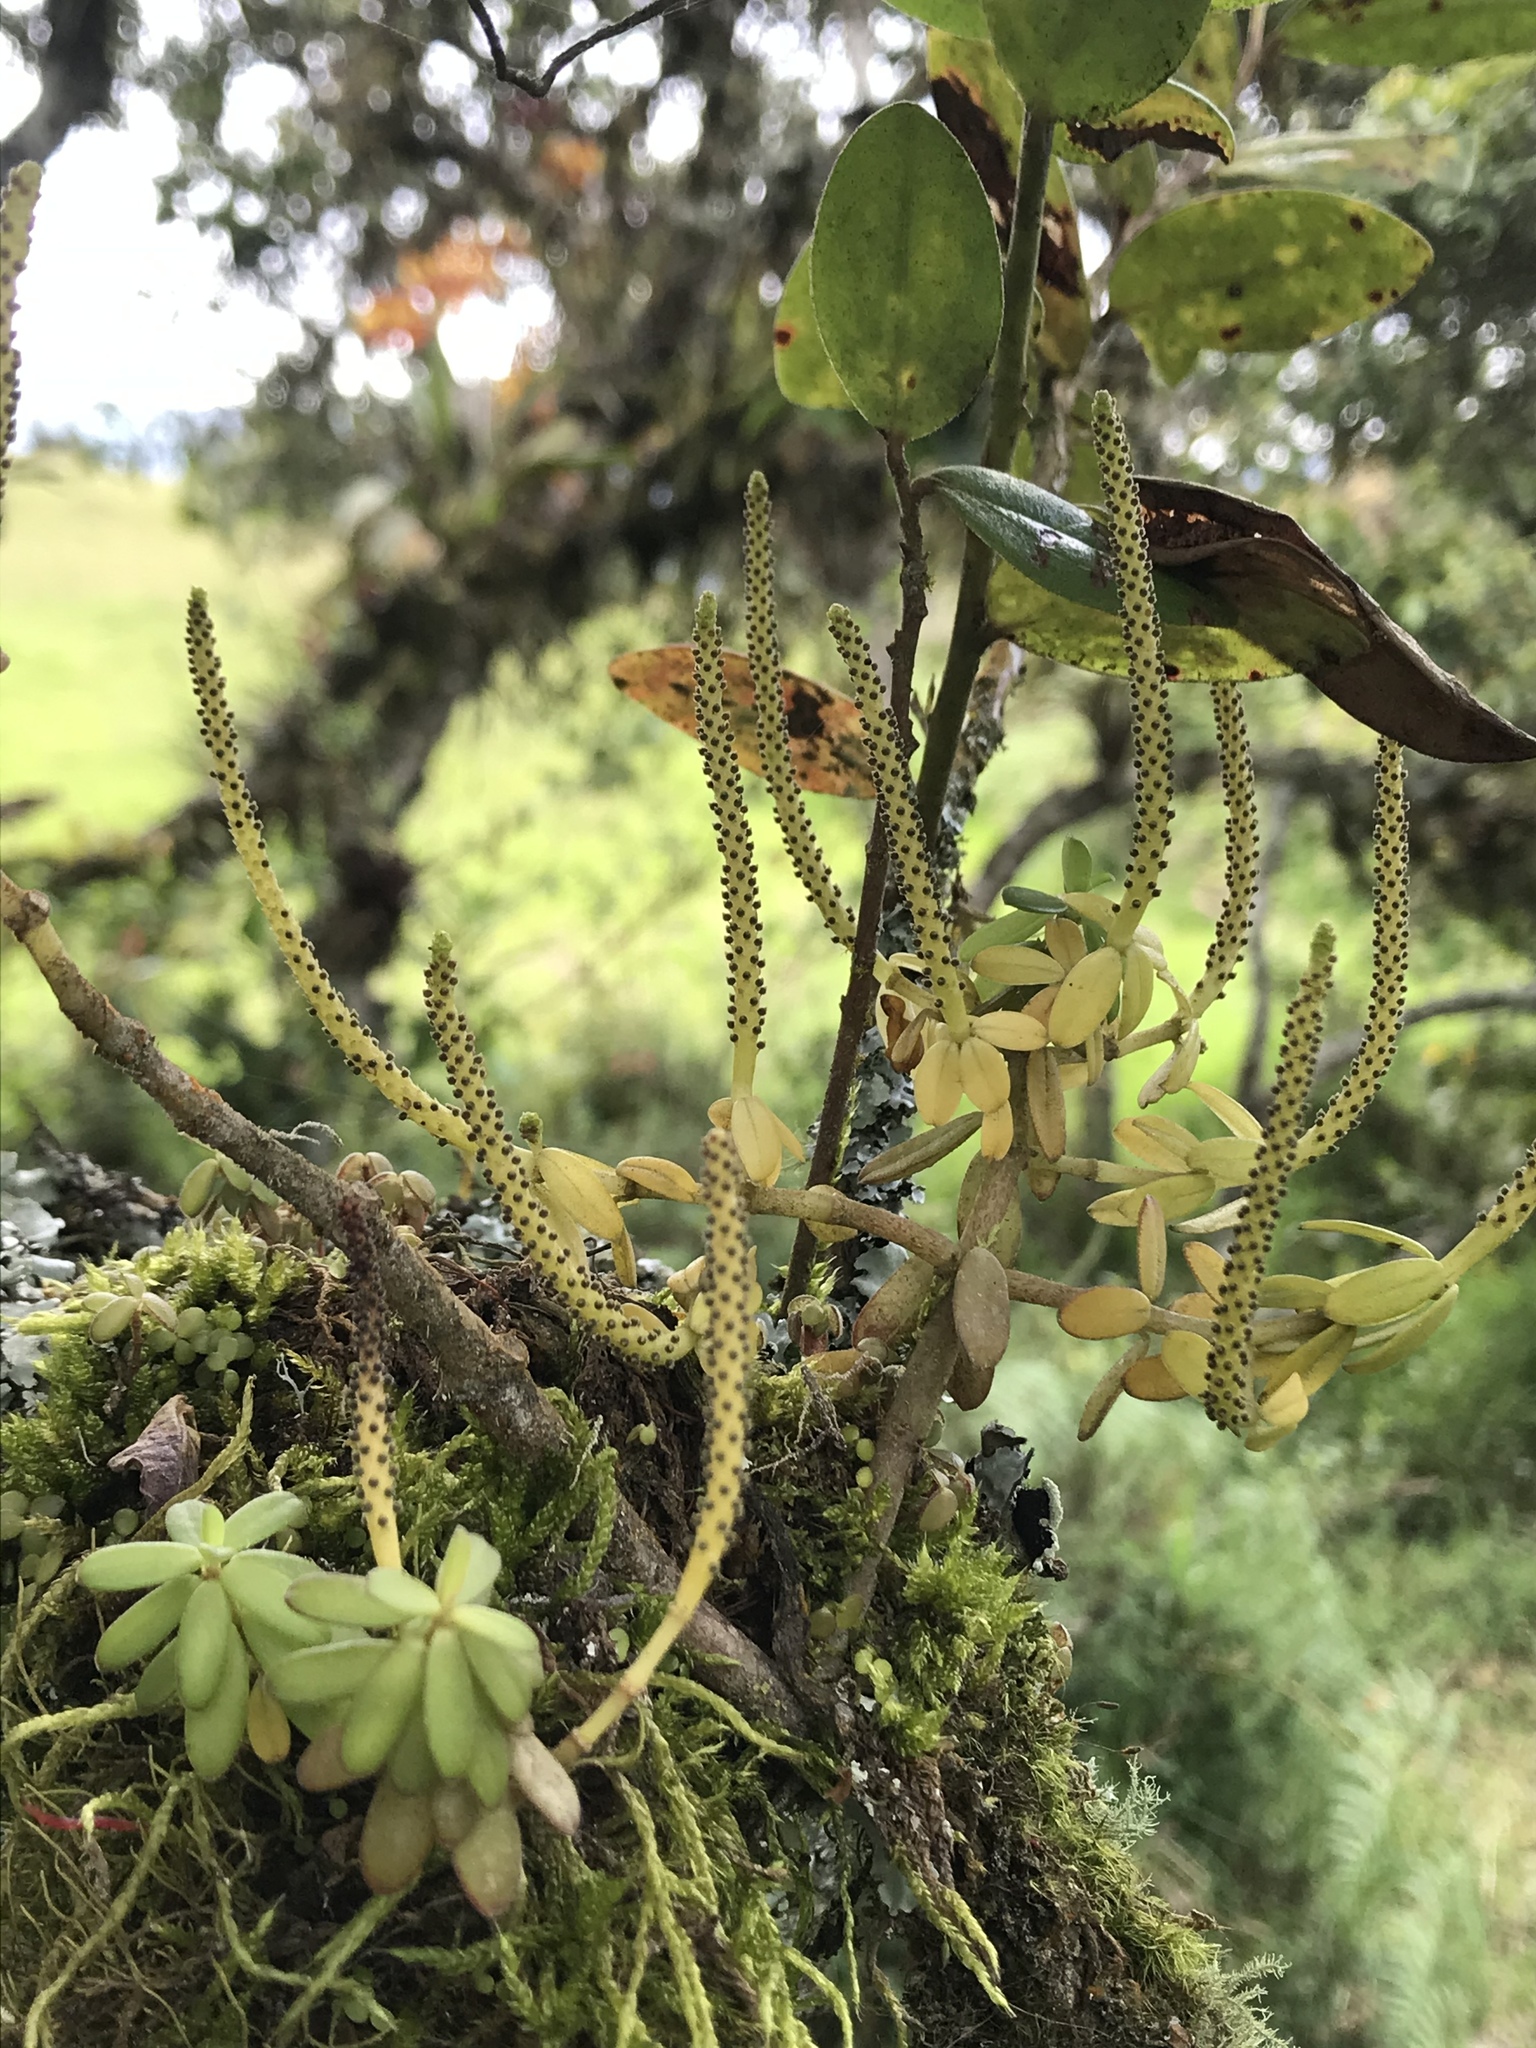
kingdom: Plantae
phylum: Tracheophyta
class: Magnoliopsida
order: Piperales
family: Piperaceae
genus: Peperomia
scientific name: Peperomia ilaloensis
